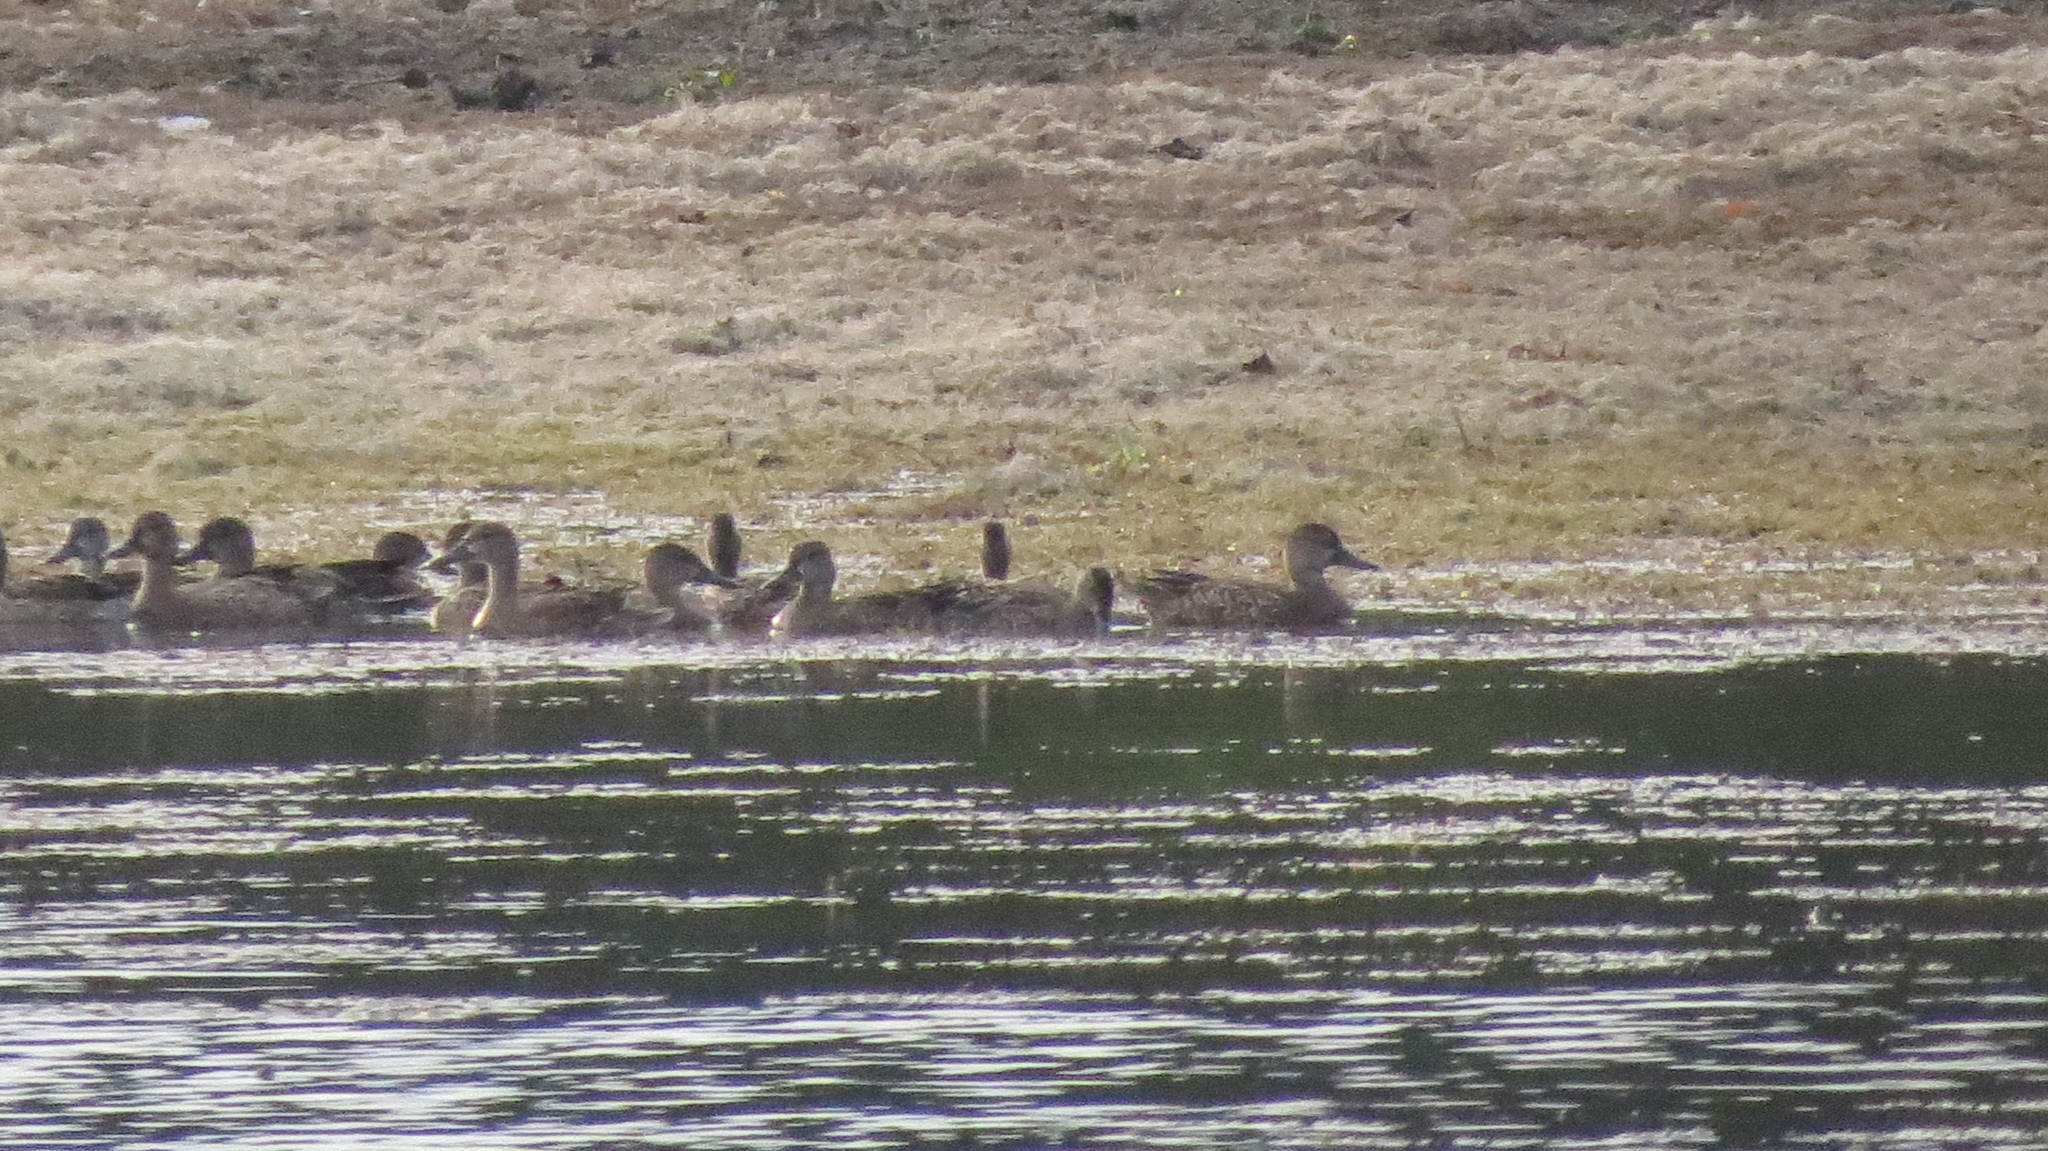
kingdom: Animalia
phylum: Chordata
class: Aves
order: Anseriformes
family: Anatidae
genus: Spatula
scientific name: Spatula discors
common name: Blue-winged teal
